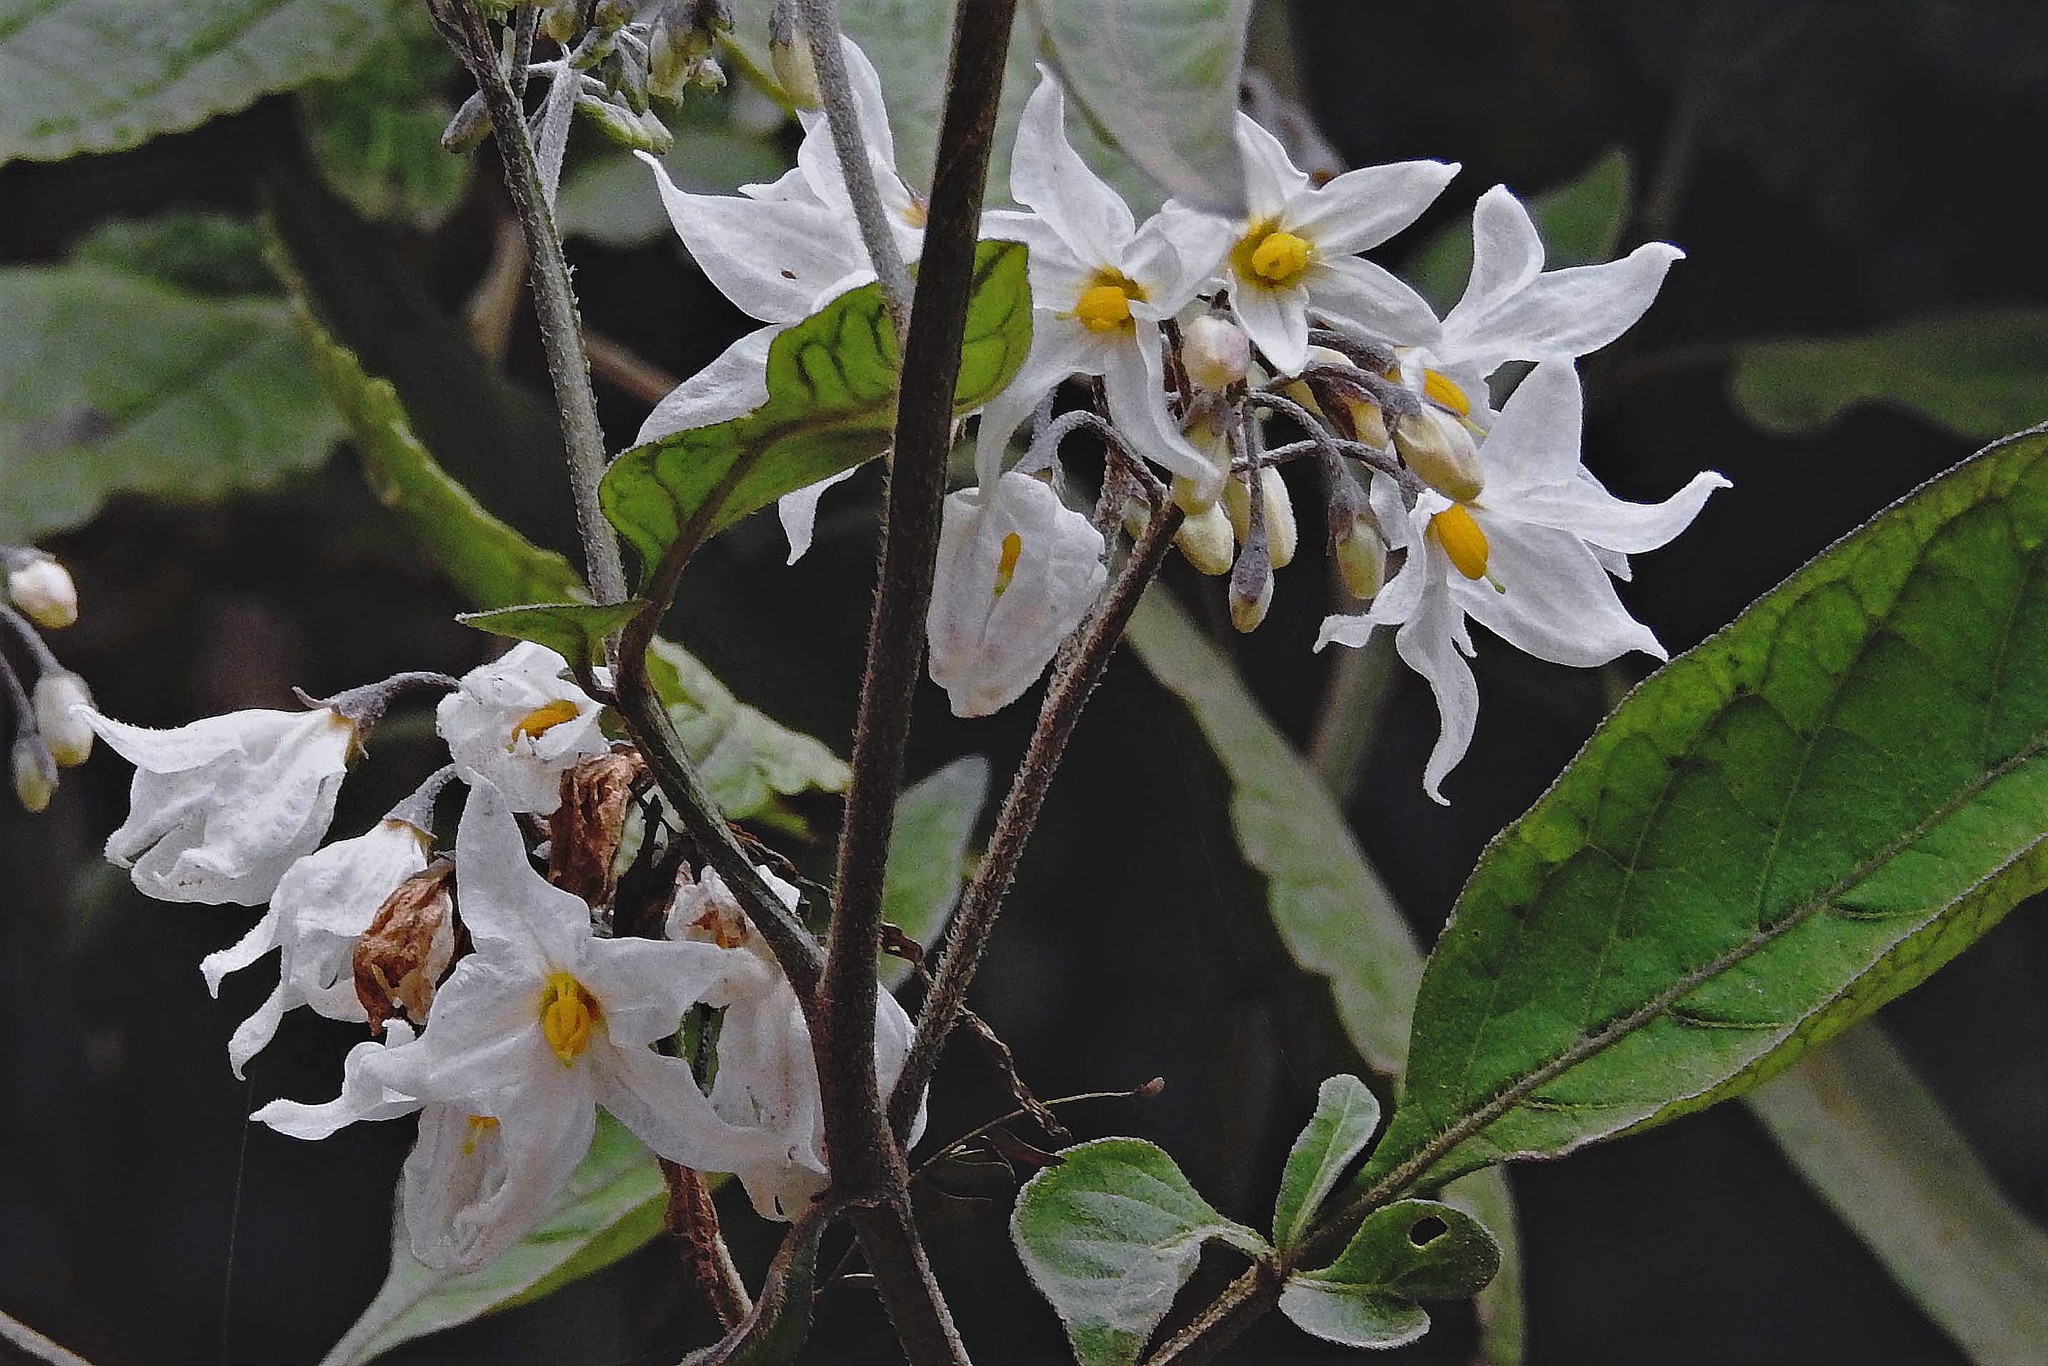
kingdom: Plantae
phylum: Tracheophyta
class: Magnoliopsida
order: Solanales
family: Solanaceae
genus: Solanum
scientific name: Solanum aloysiifolium
